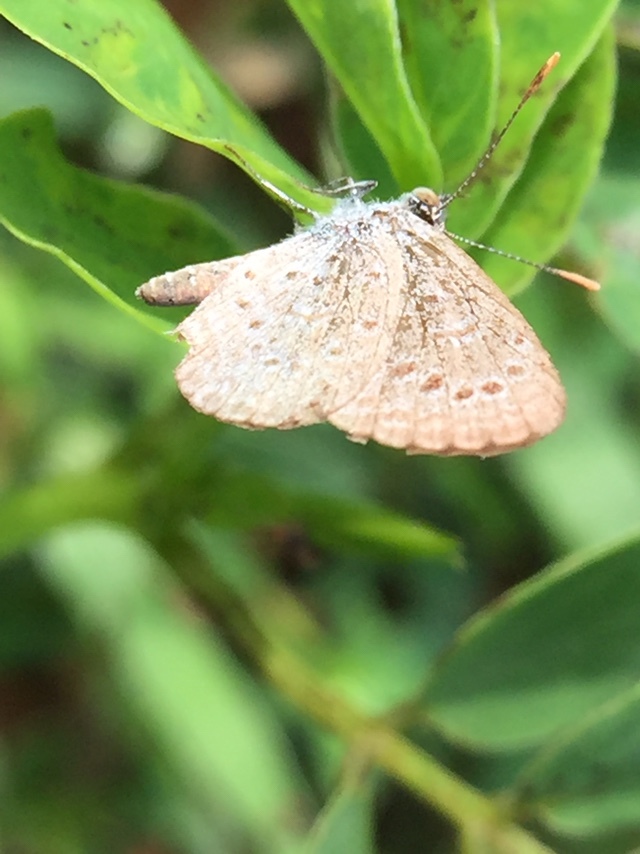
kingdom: Animalia
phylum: Arthropoda
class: Insecta
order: Lepidoptera
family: Lycaenidae
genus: Zizeeria
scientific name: Zizeeria karsandra
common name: Dark grass blue
